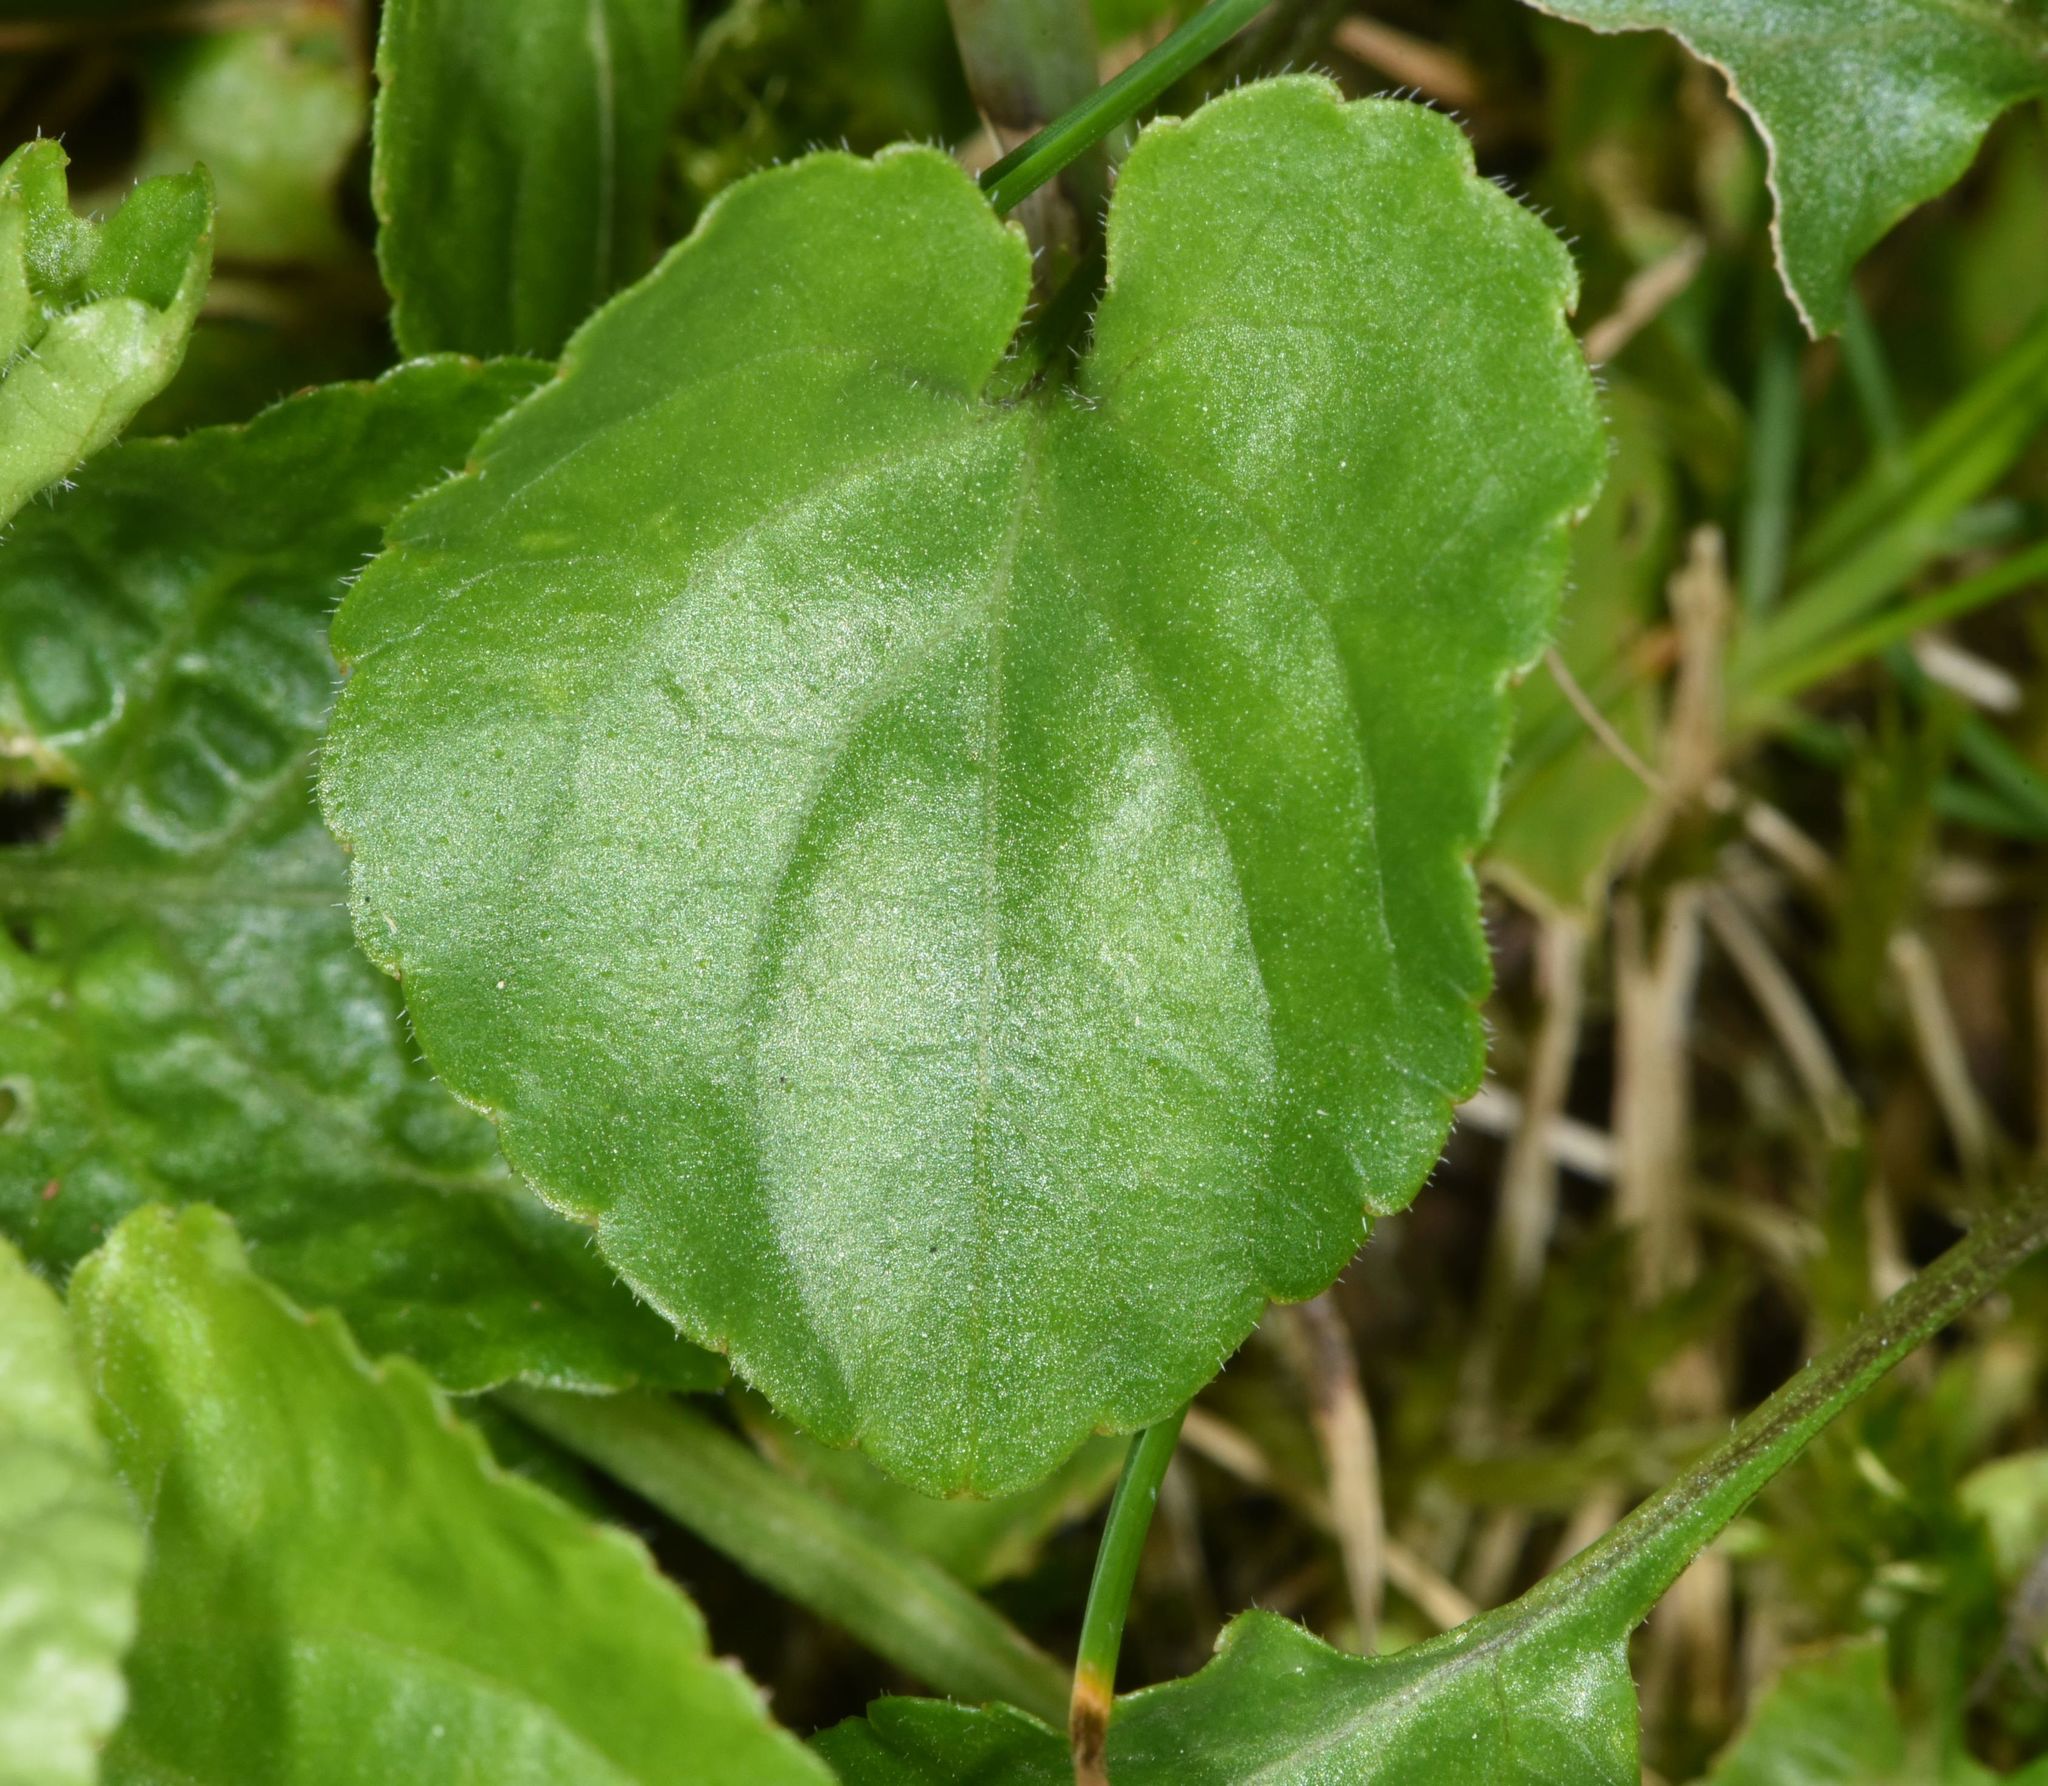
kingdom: Plantae
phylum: Tracheophyta
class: Magnoliopsida
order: Malpighiales
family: Violaceae
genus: Viola
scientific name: Viola odorata
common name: Sweet violet
